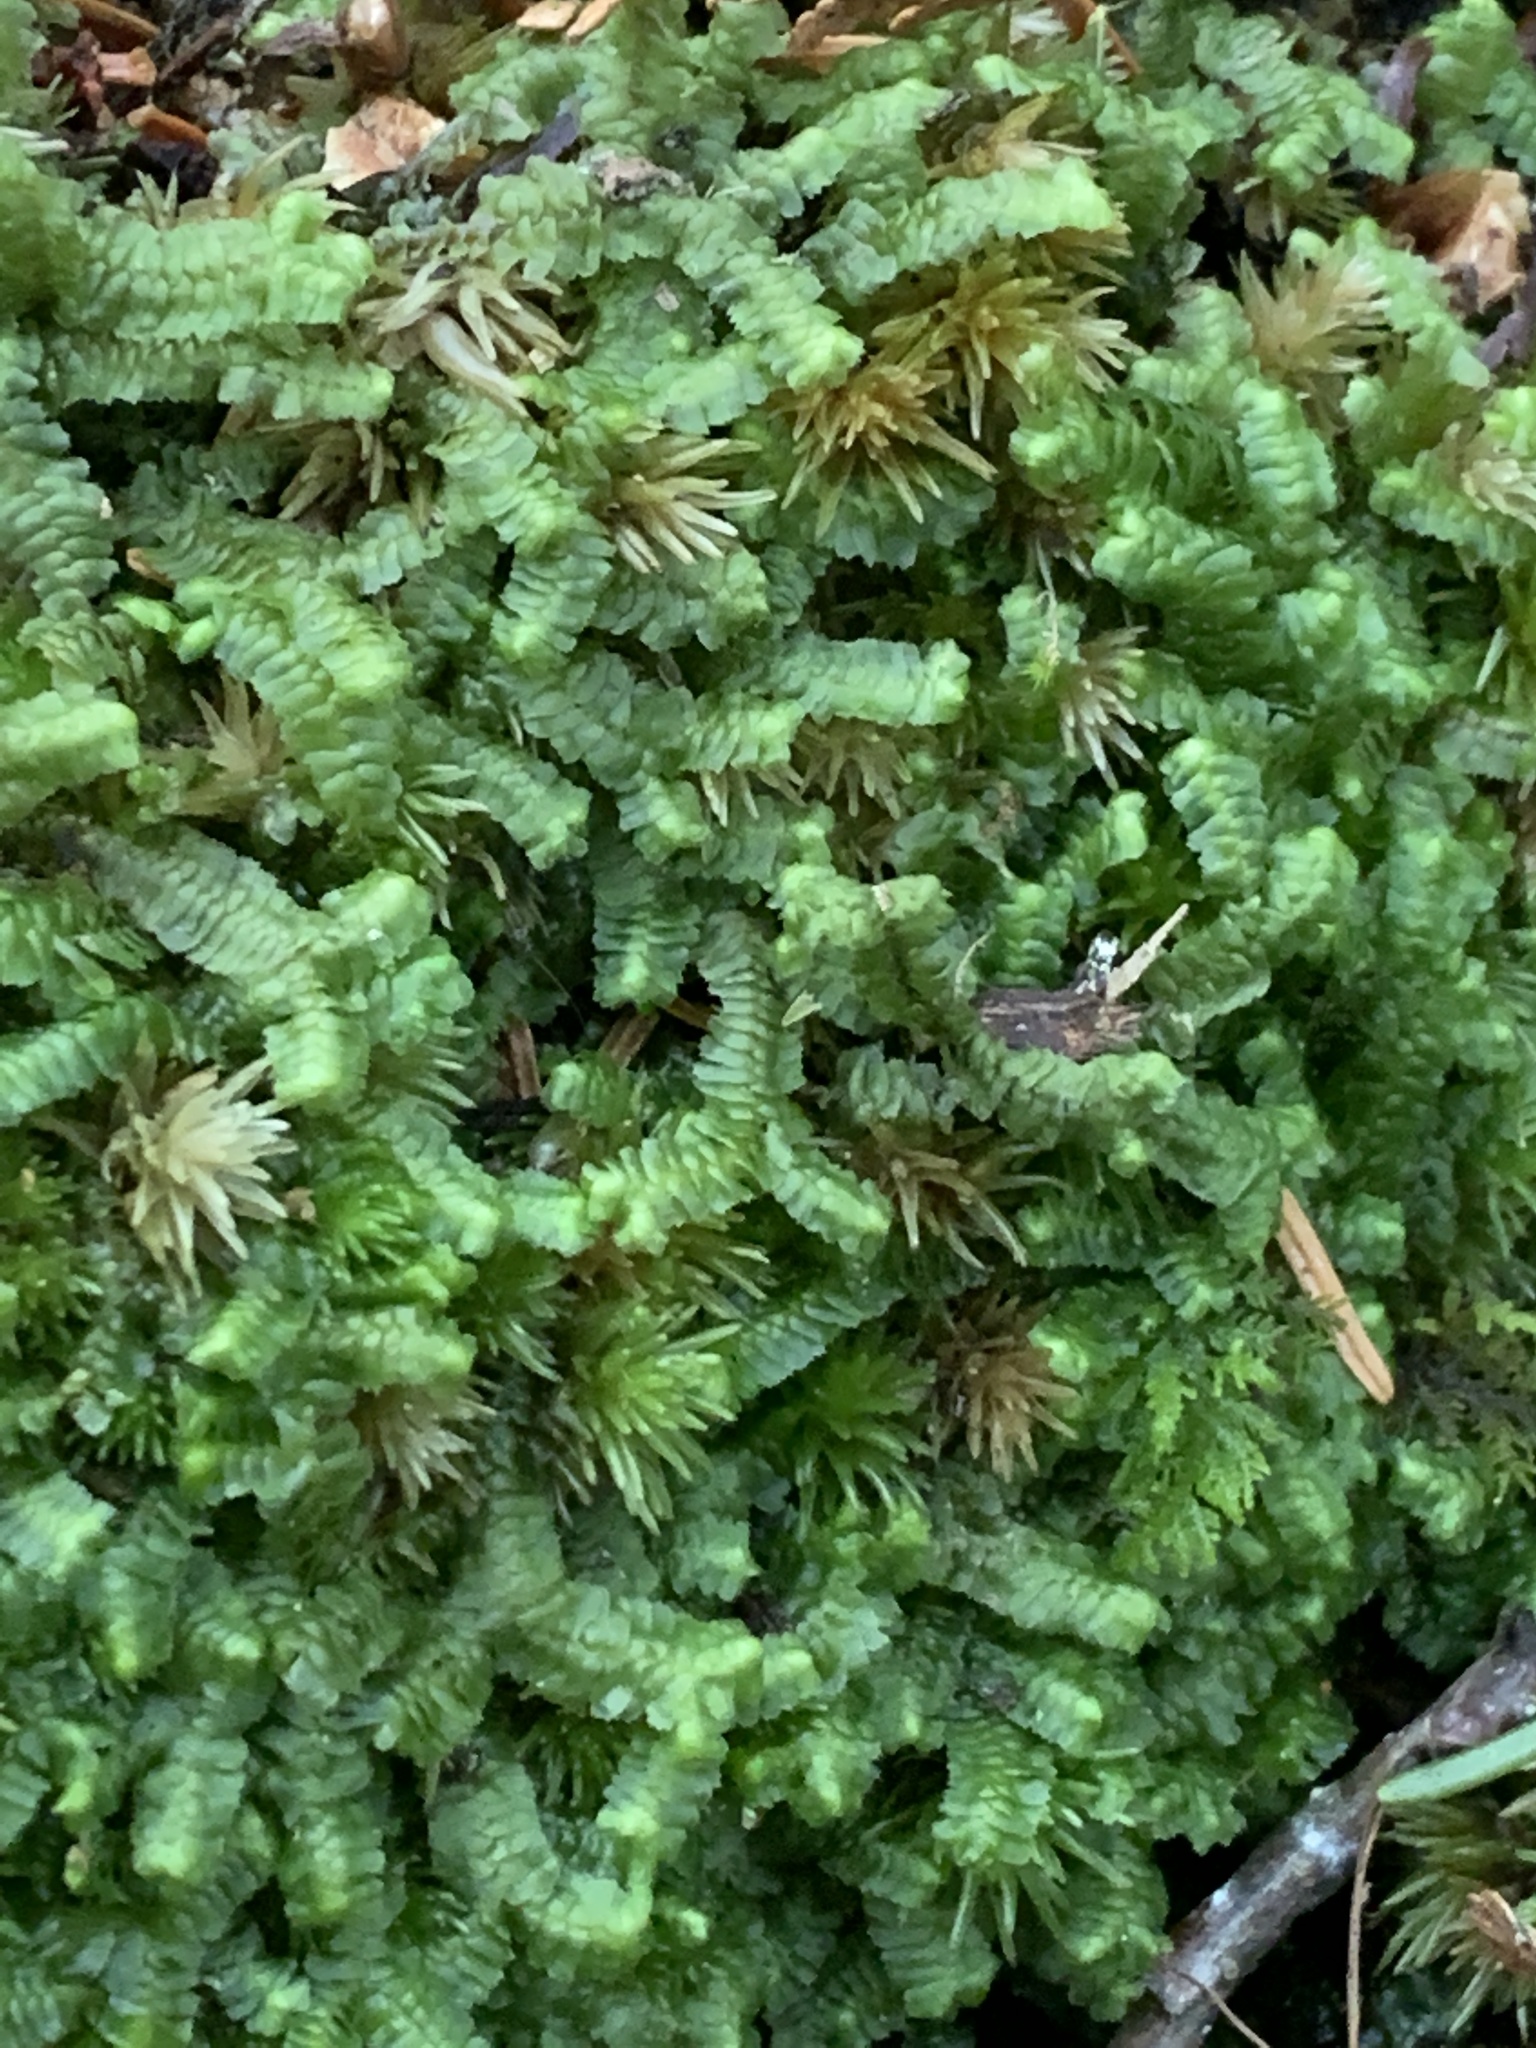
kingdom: Plantae
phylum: Marchantiophyta
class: Jungermanniopsida
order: Jungermanniales
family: Lepidoziaceae
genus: Bazzania
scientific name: Bazzania trilobata
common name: Three-lobed whipwort
